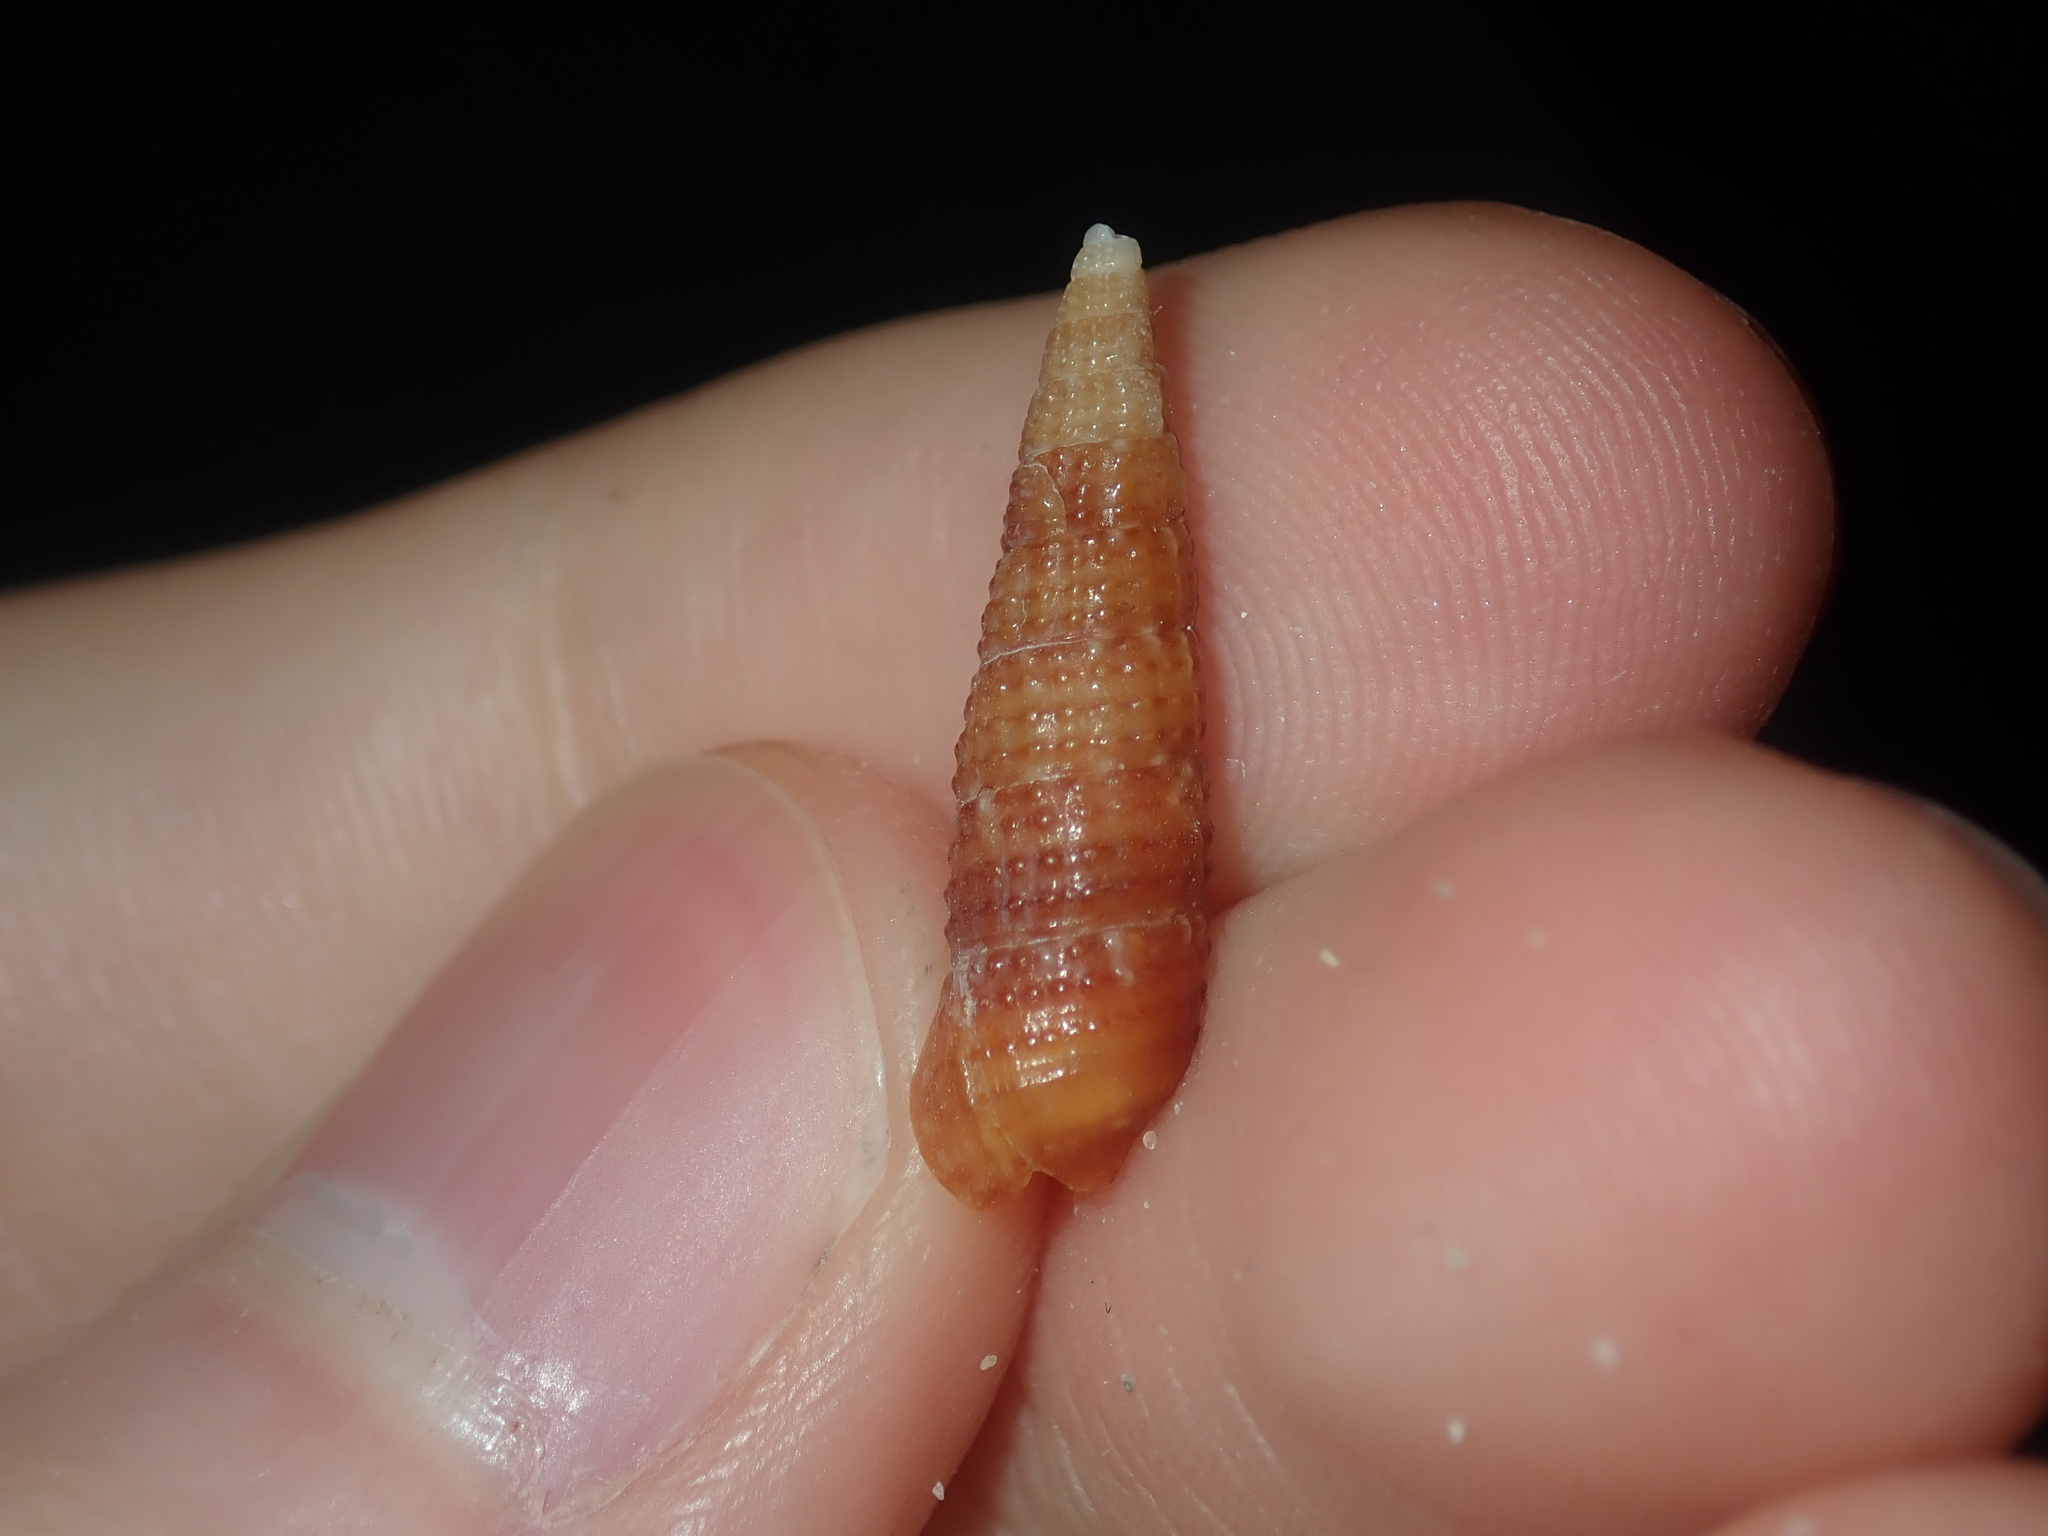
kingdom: Animalia
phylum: Mollusca
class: Gastropoda
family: Cerithiidae
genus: Cacozeliana
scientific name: Cacozeliana granarium
